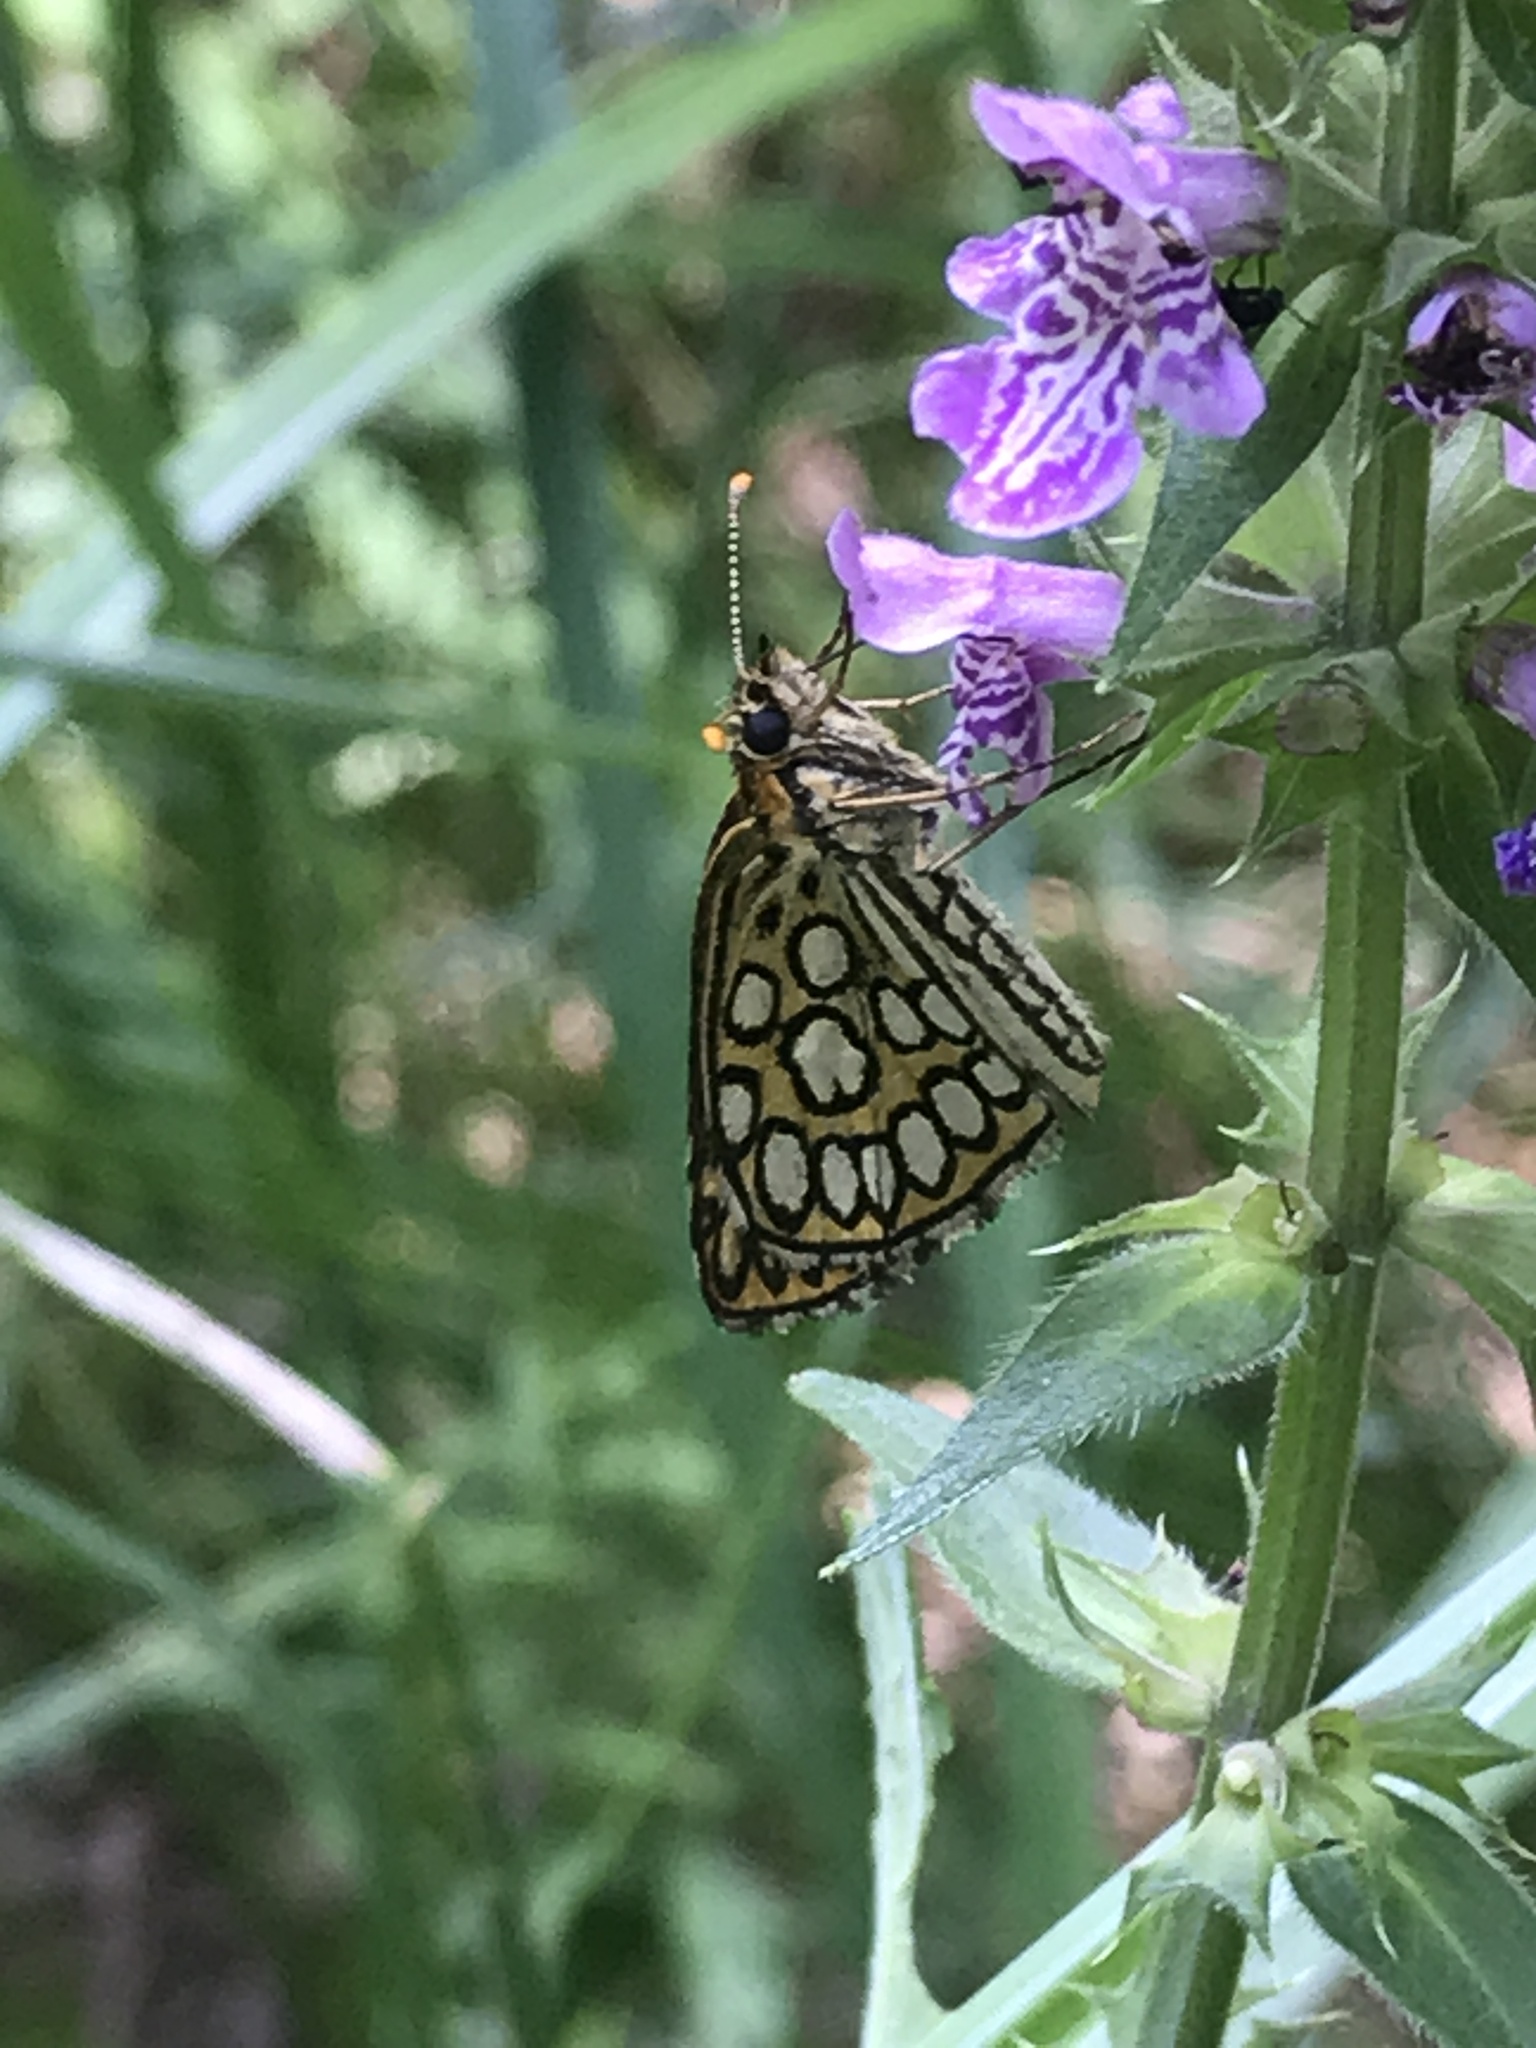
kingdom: Animalia
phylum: Arthropoda
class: Insecta
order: Lepidoptera
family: Hesperiidae
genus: Heteropterus
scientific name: Heteropterus morpheus
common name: Large chequered skipper
